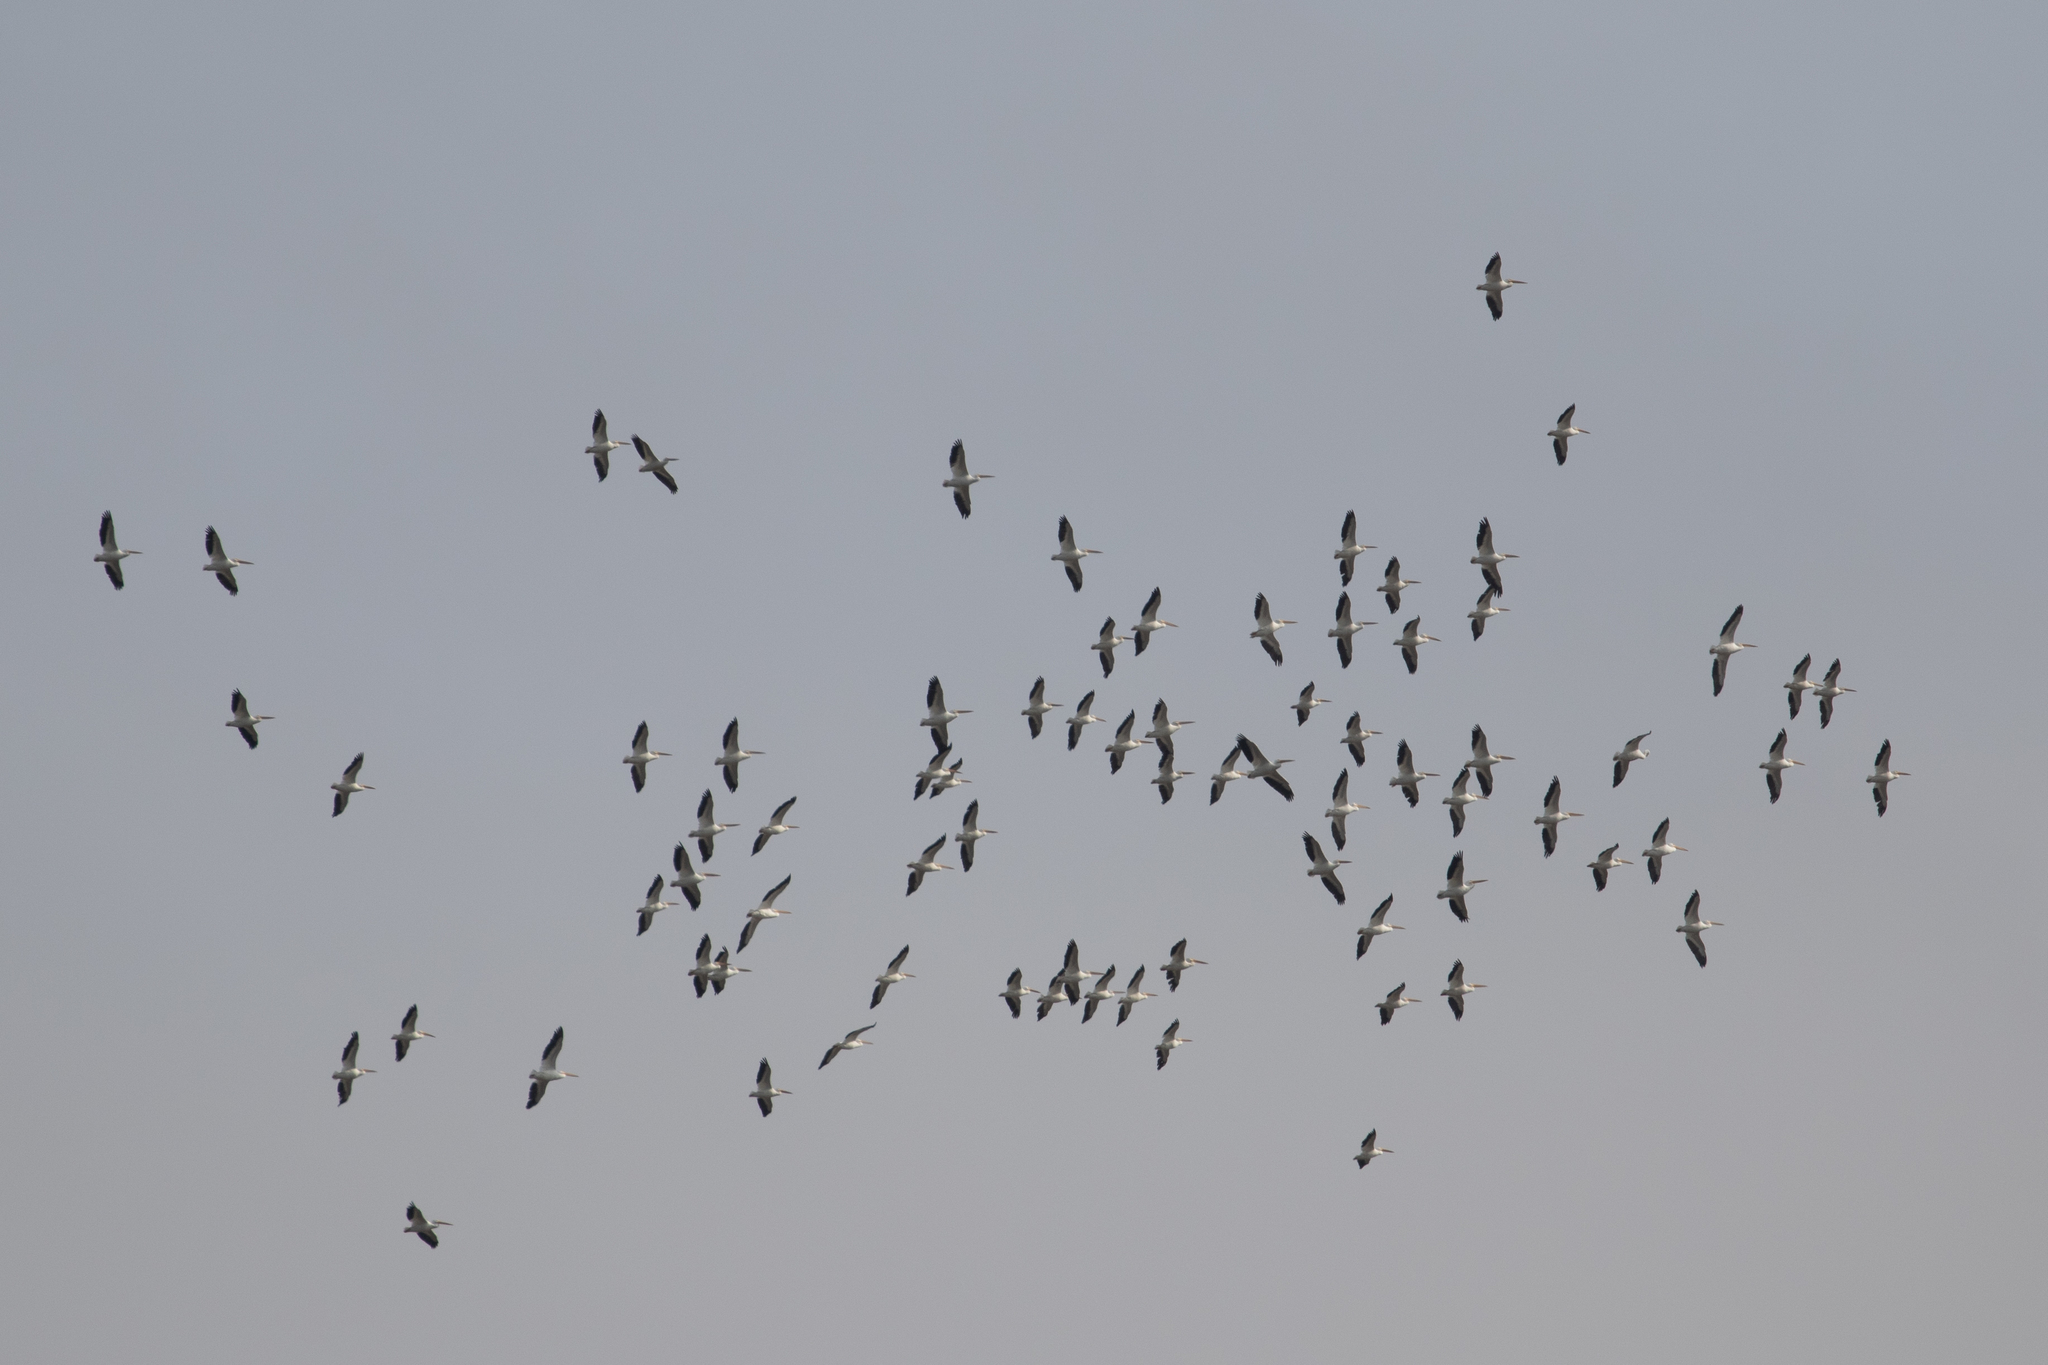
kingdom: Animalia
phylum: Chordata
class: Aves
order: Pelecaniformes
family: Pelecanidae
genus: Pelecanus
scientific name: Pelecanus erythrorhynchos
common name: American white pelican
